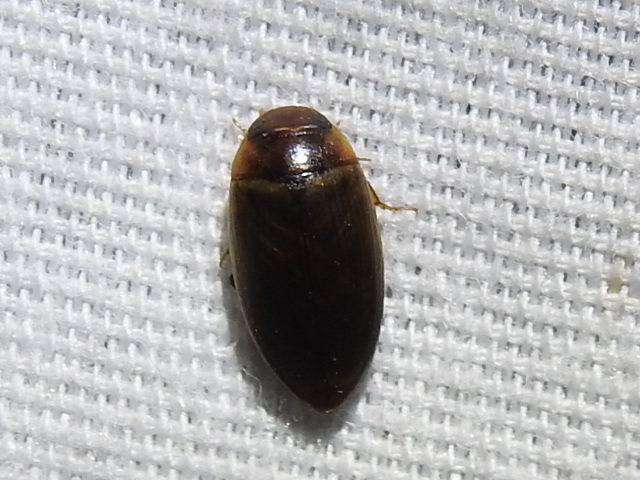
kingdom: Animalia
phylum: Arthropoda
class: Insecta
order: Coleoptera
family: Dytiscidae
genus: Copelatus
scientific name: Copelatus chevrolati
